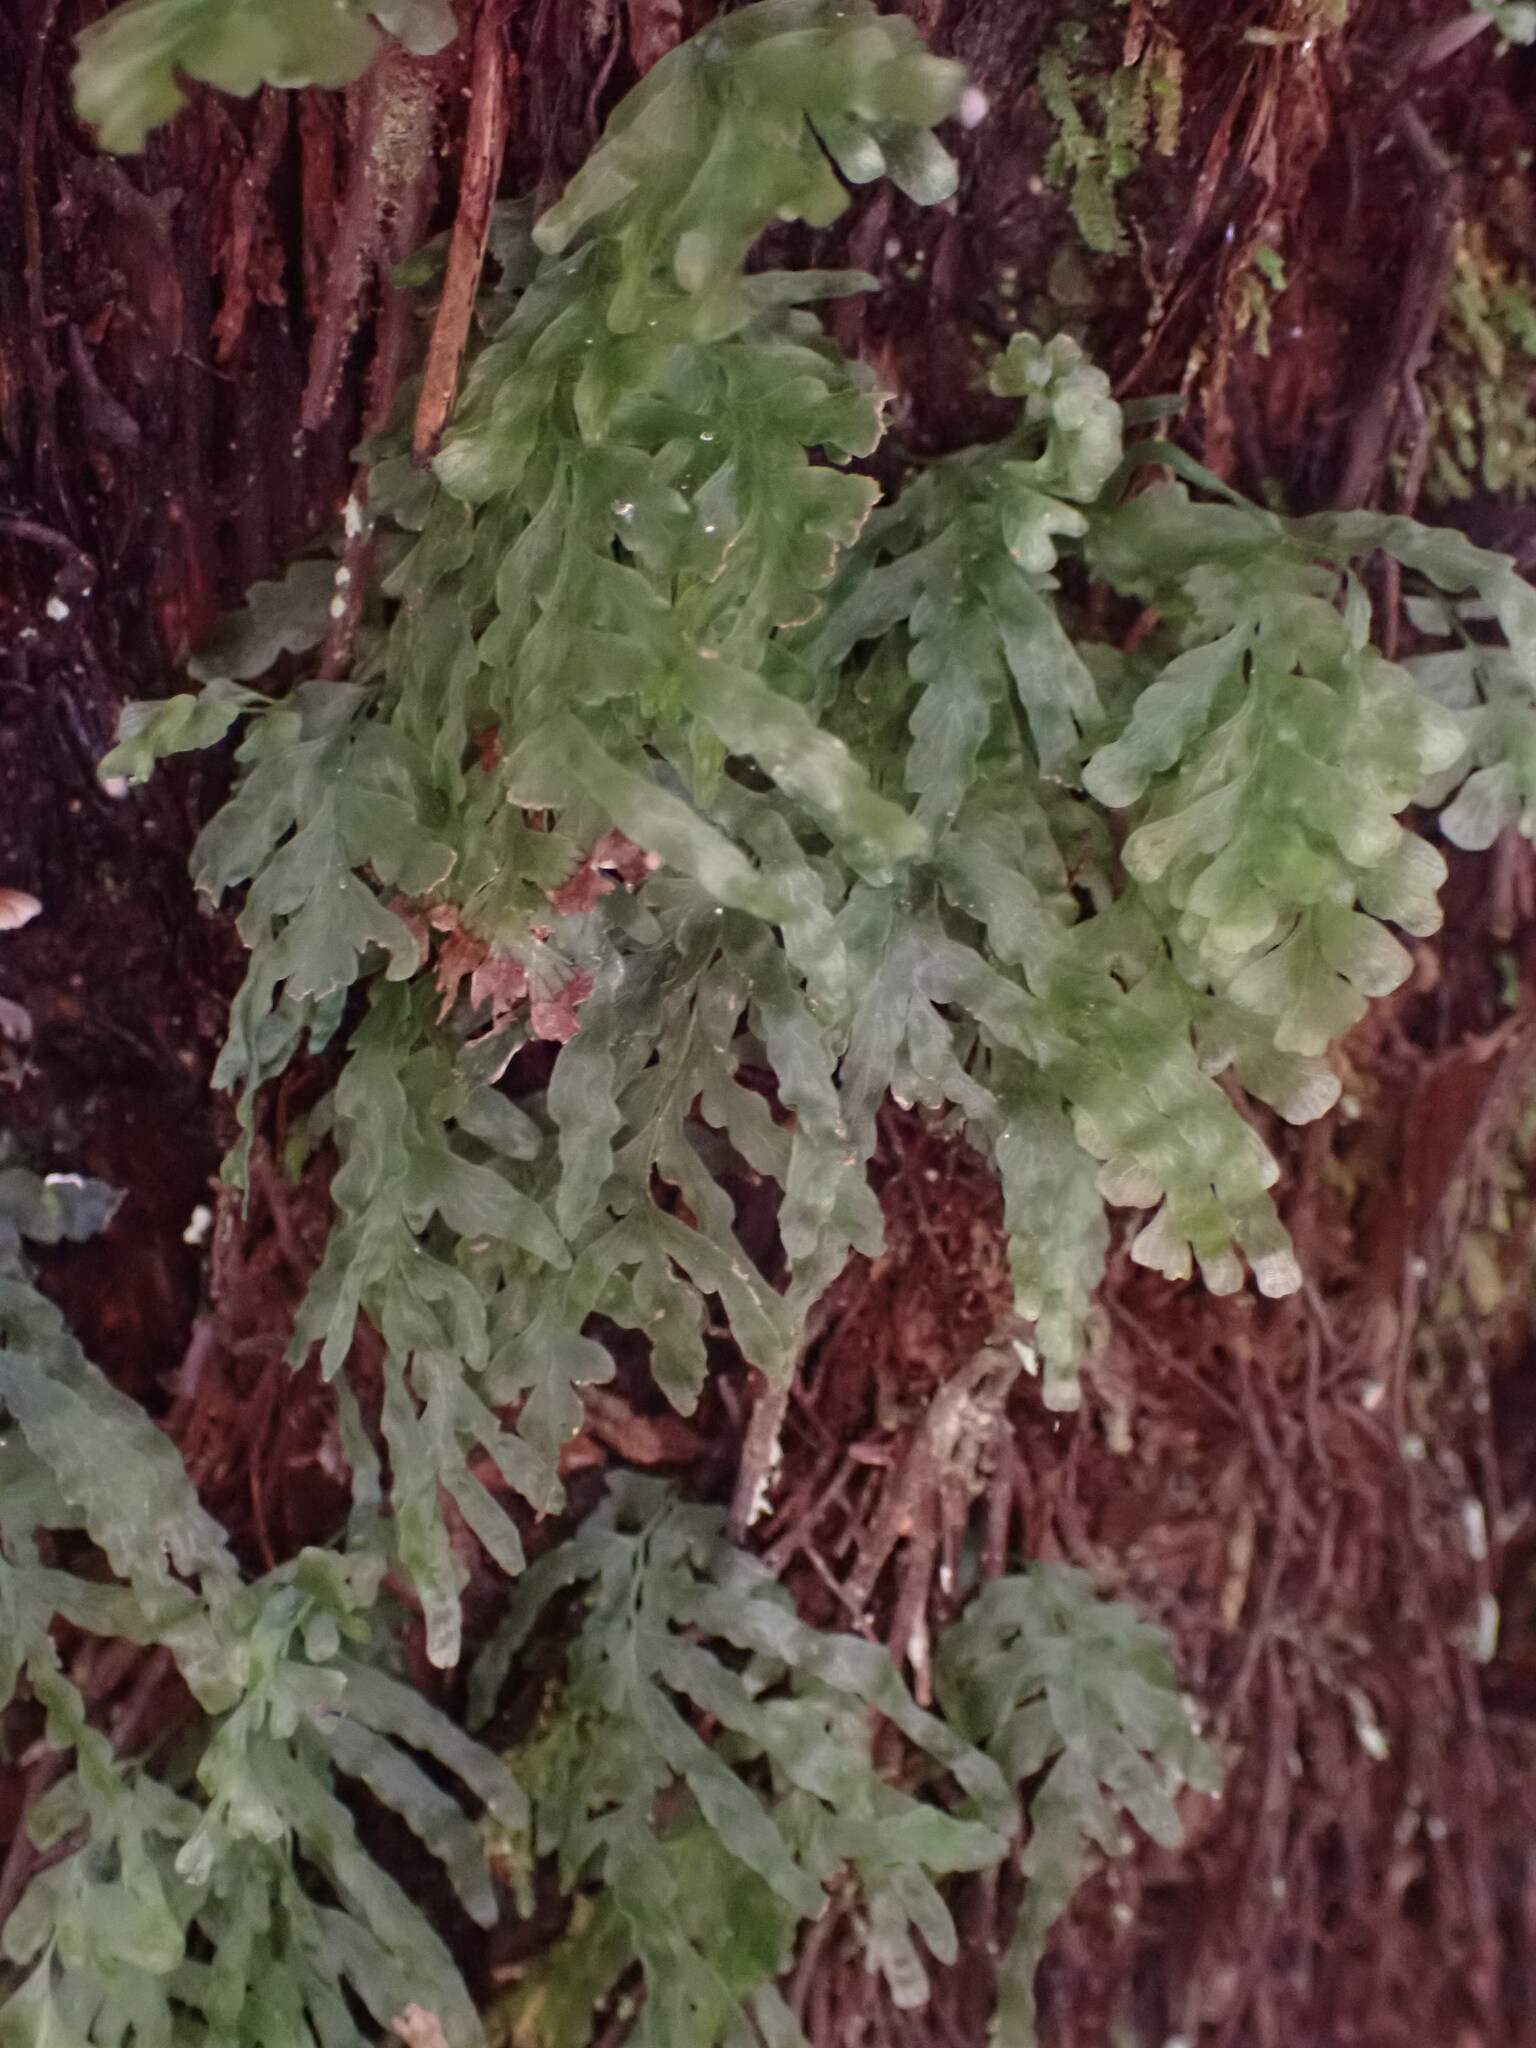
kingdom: Plantae
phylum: Tracheophyta
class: Polypodiopsida
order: Hymenophyllales
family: Hymenophyllaceae
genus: Polyphlebium
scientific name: Polyphlebium venosum
